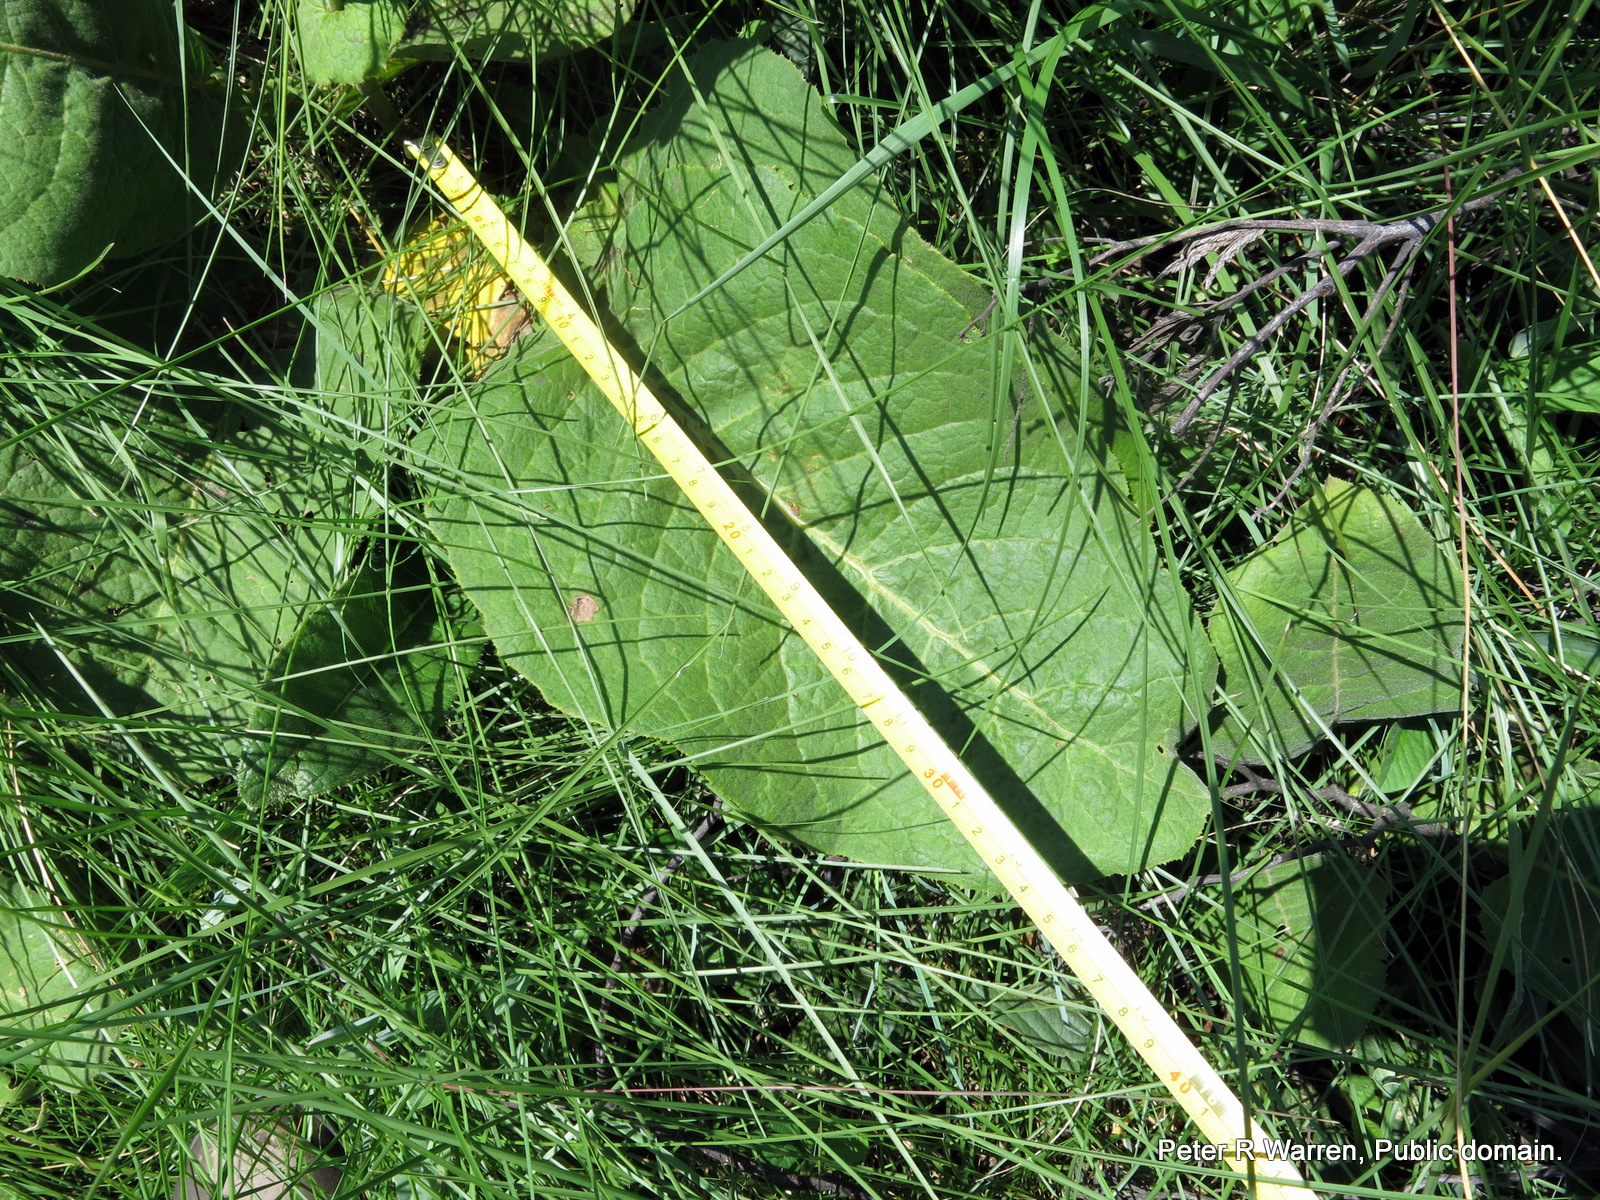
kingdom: Plantae
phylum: Tracheophyta
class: Magnoliopsida
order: Asterales
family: Asteraceae
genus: Berkheya
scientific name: Berkheya setifera
